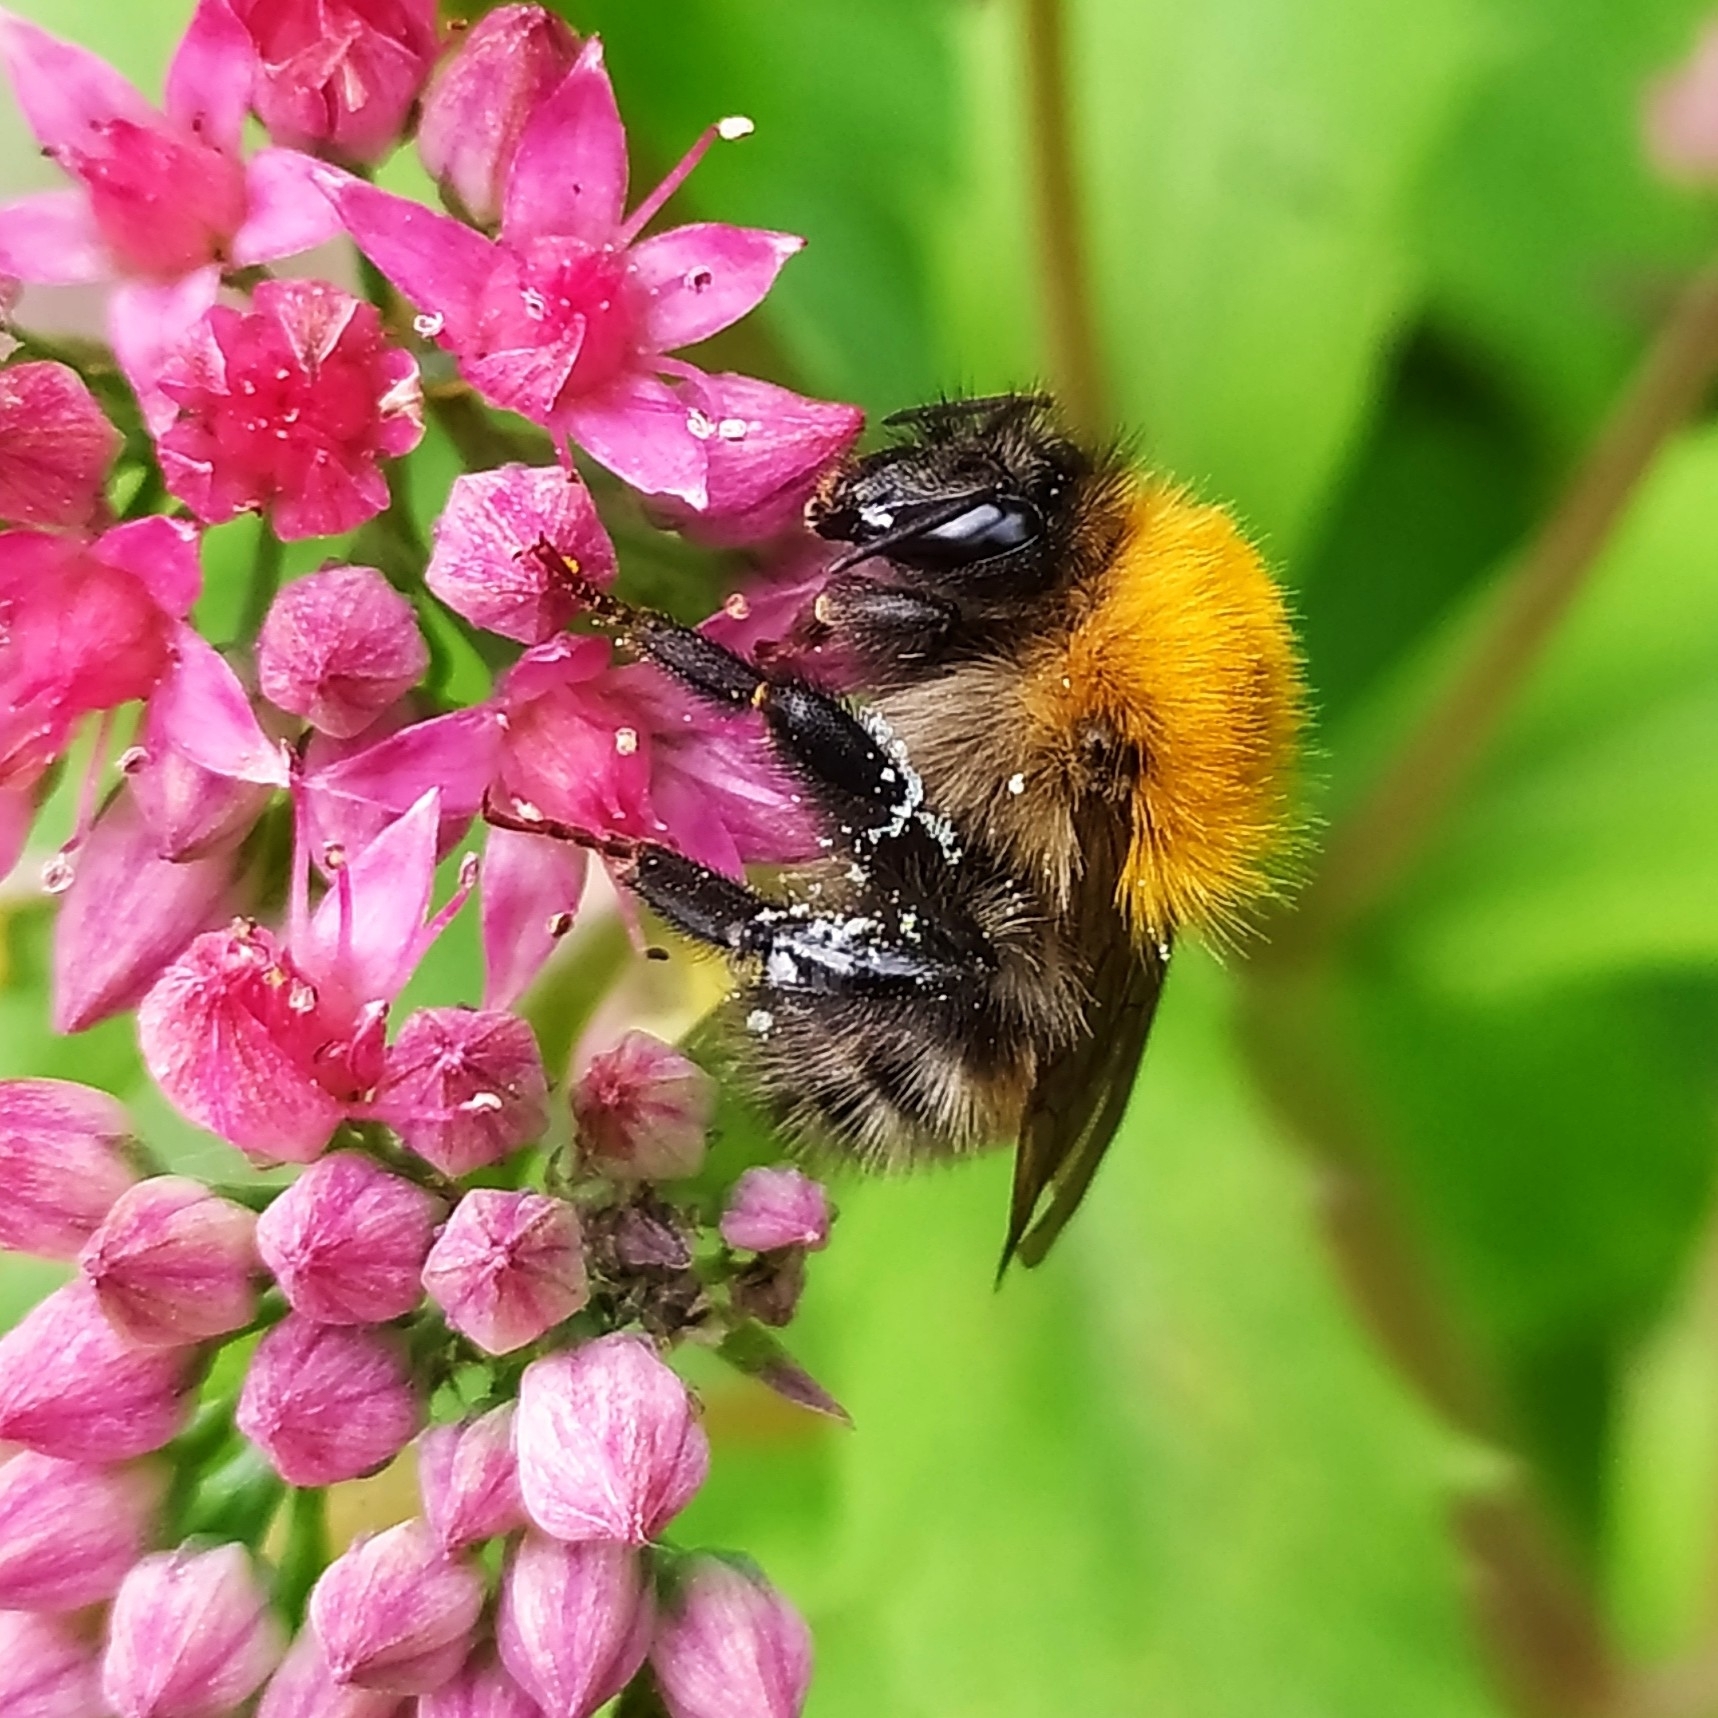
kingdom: Animalia
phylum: Arthropoda
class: Insecta
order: Hymenoptera
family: Apidae
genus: Bombus
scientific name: Bombus schrencki
